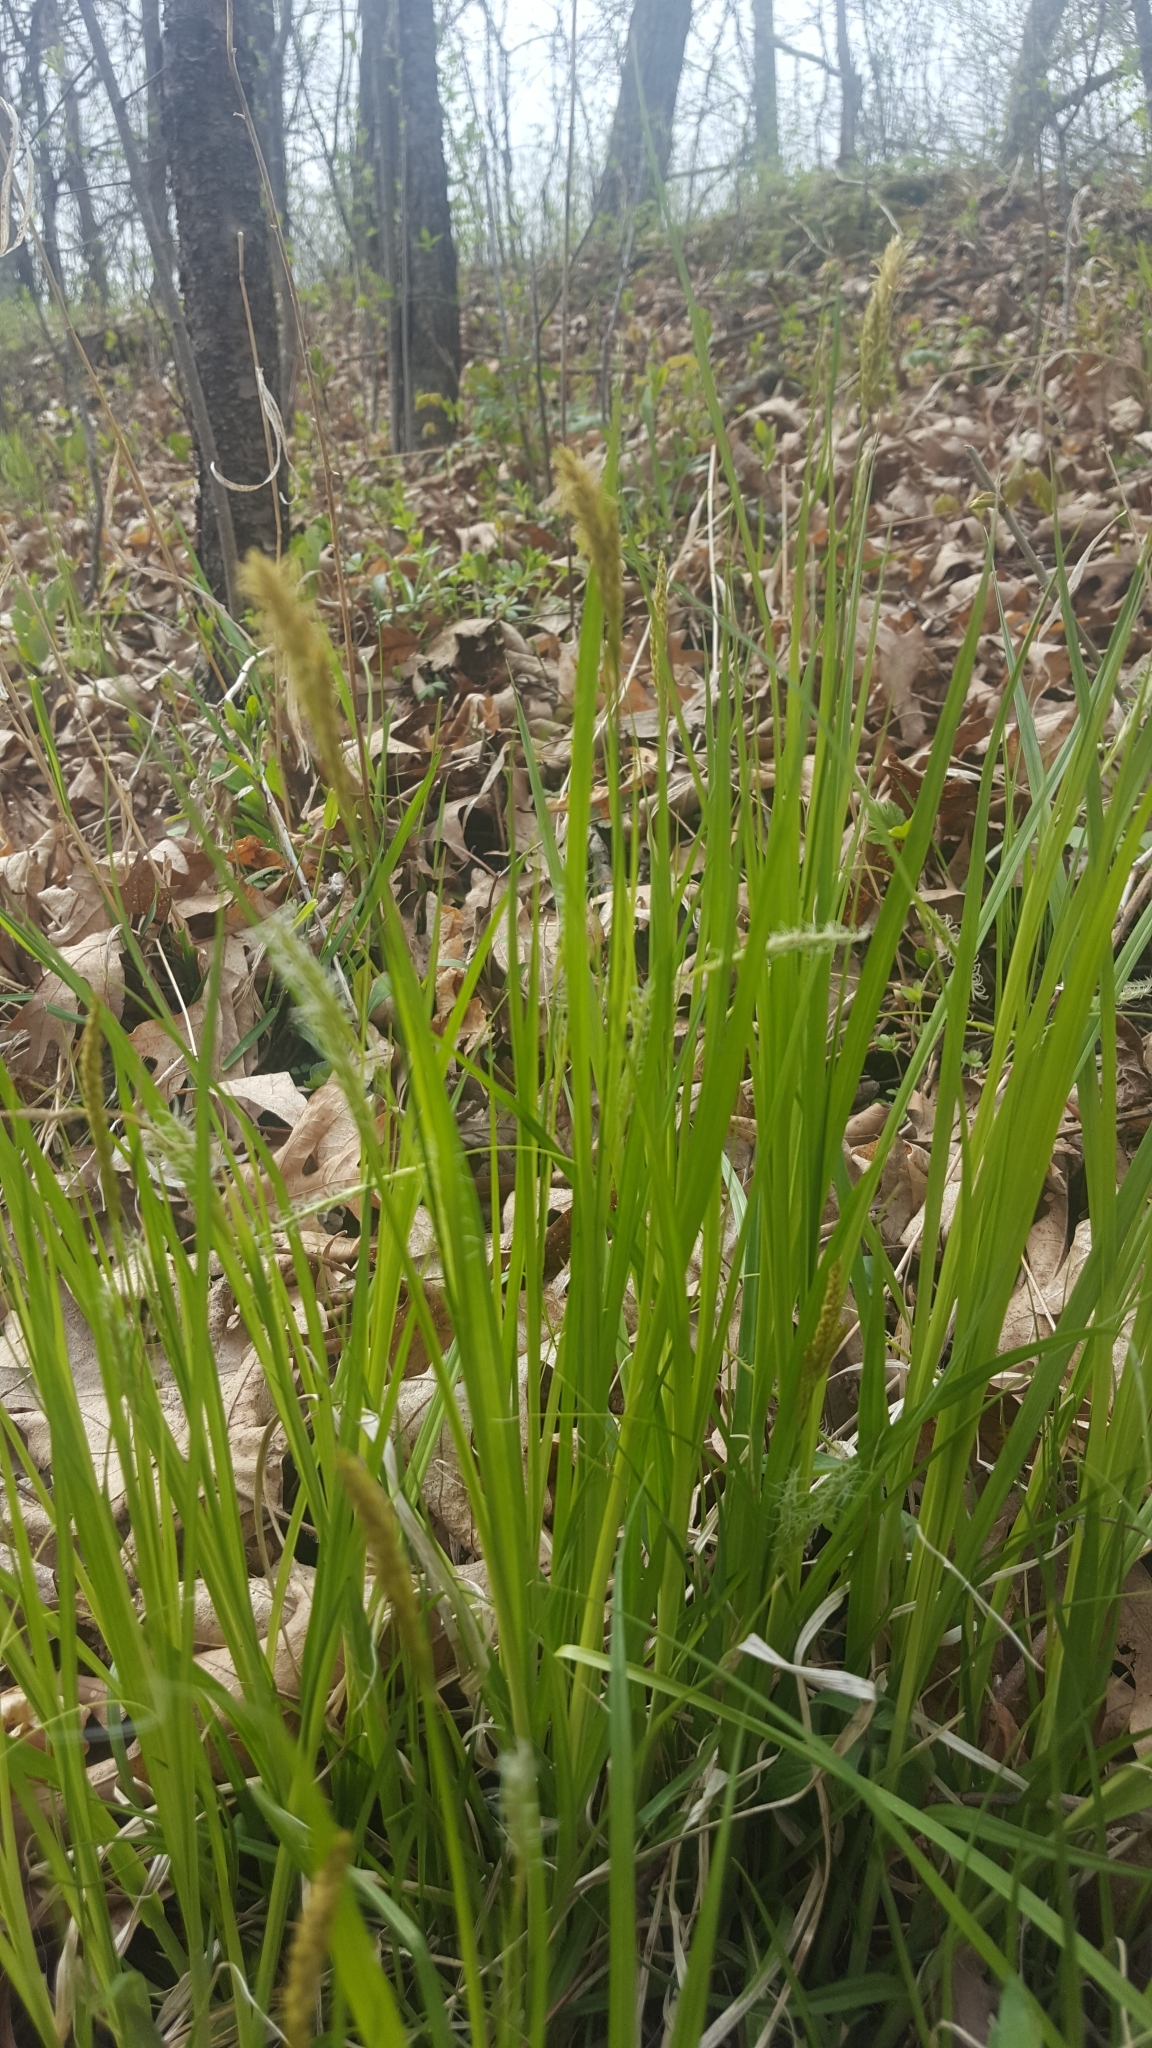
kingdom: Plantae
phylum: Tracheophyta
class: Liliopsida
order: Poales
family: Cyperaceae
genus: Carex
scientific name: Carex sprengelii
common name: Long-beaked sedge
